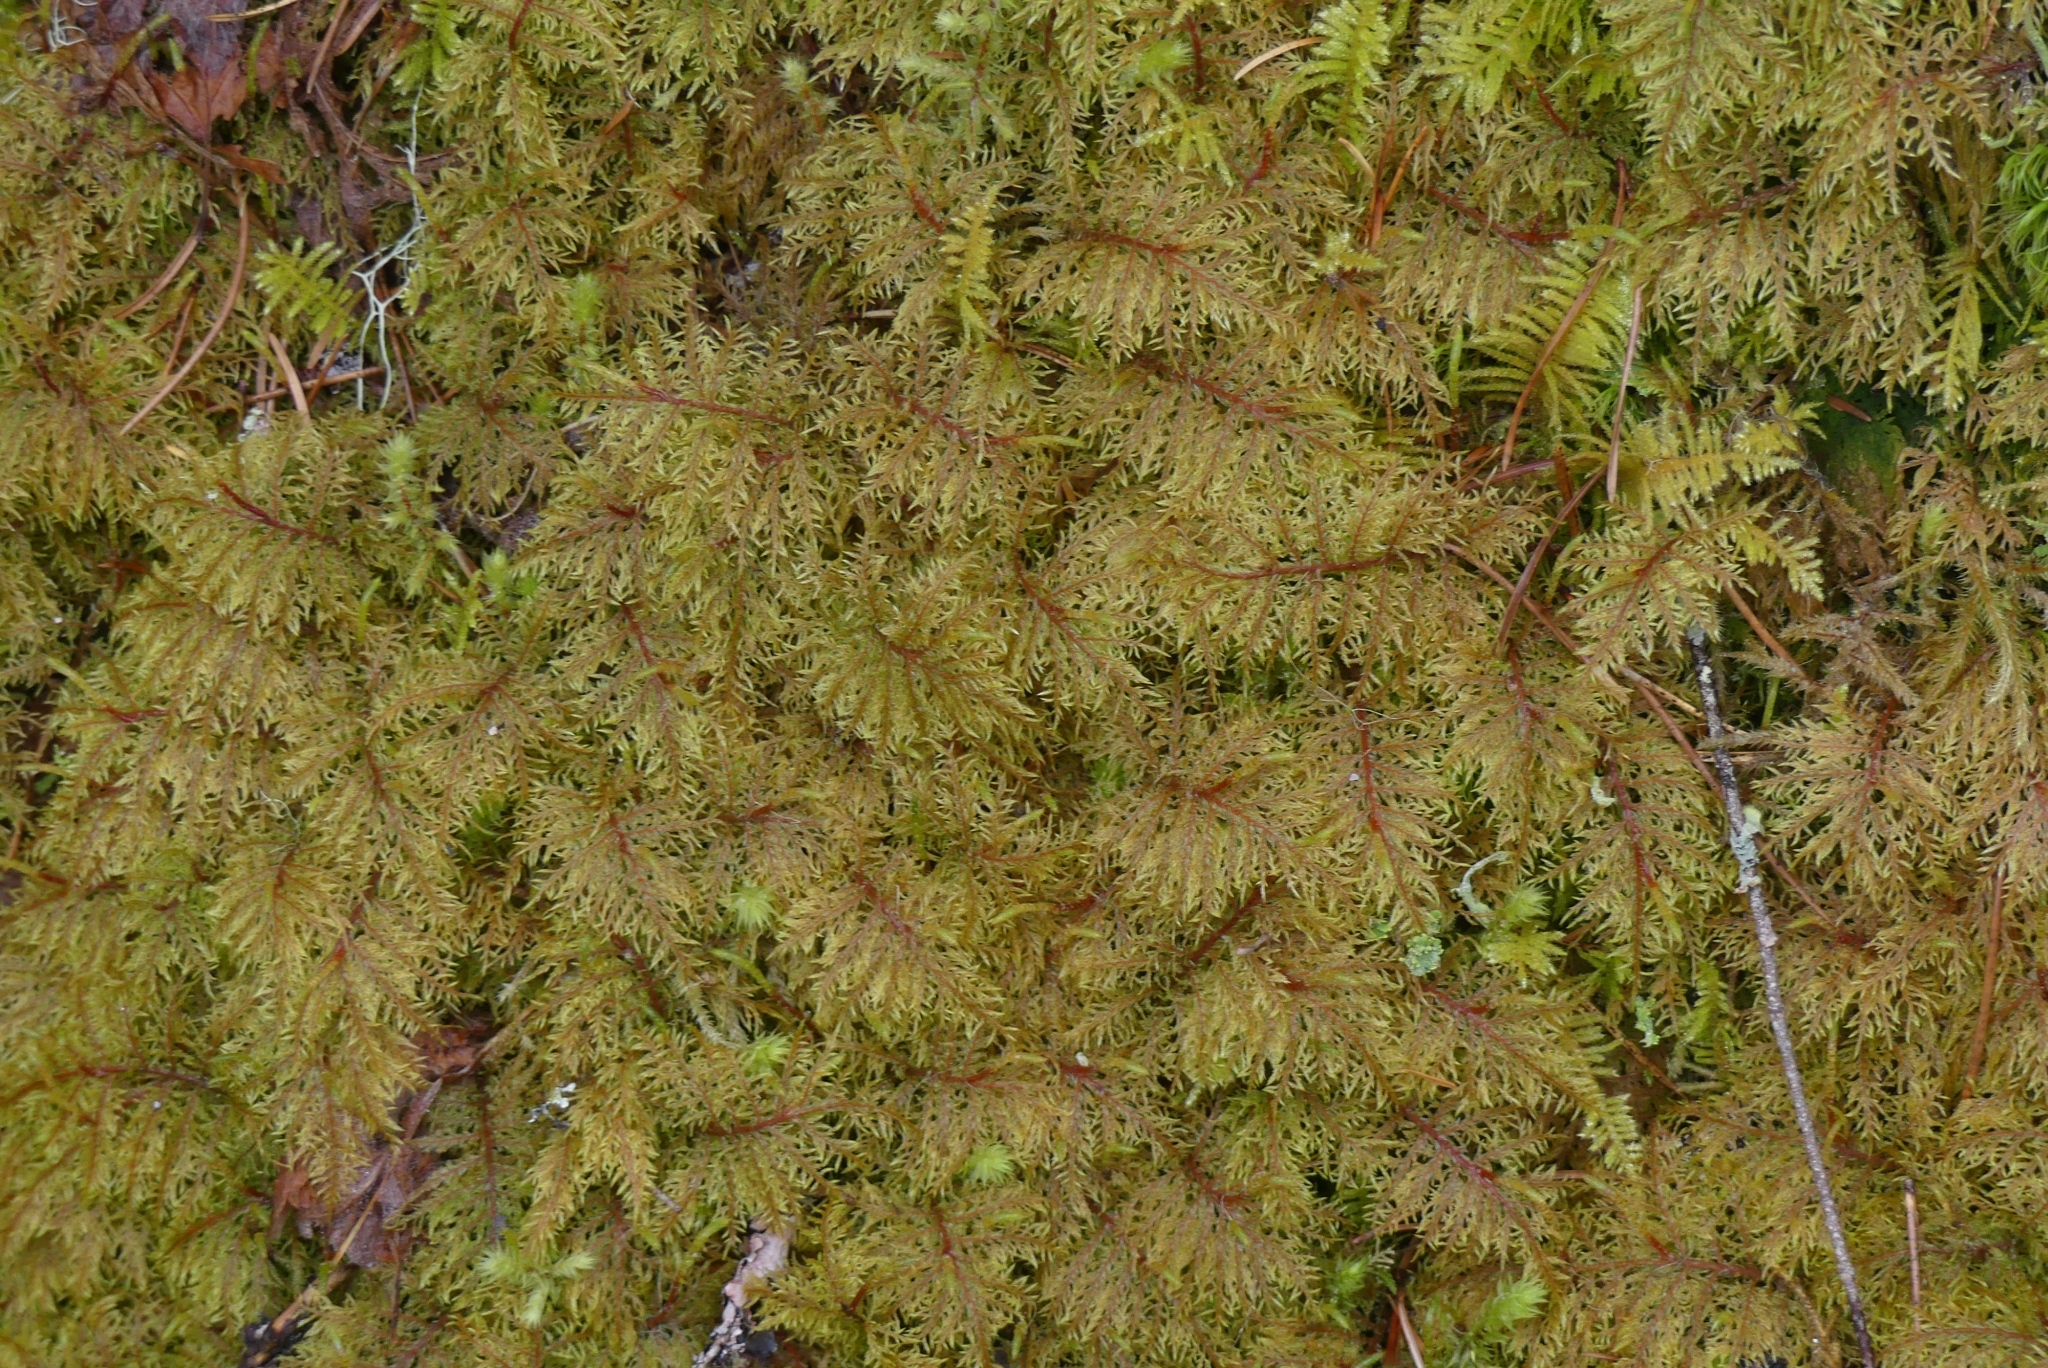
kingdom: Plantae
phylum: Bryophyta
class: Bryopsida
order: Hypnales
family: Hylocomiaceae
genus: Hylocomium
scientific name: Hylocomium splendens
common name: Stairstep moss
